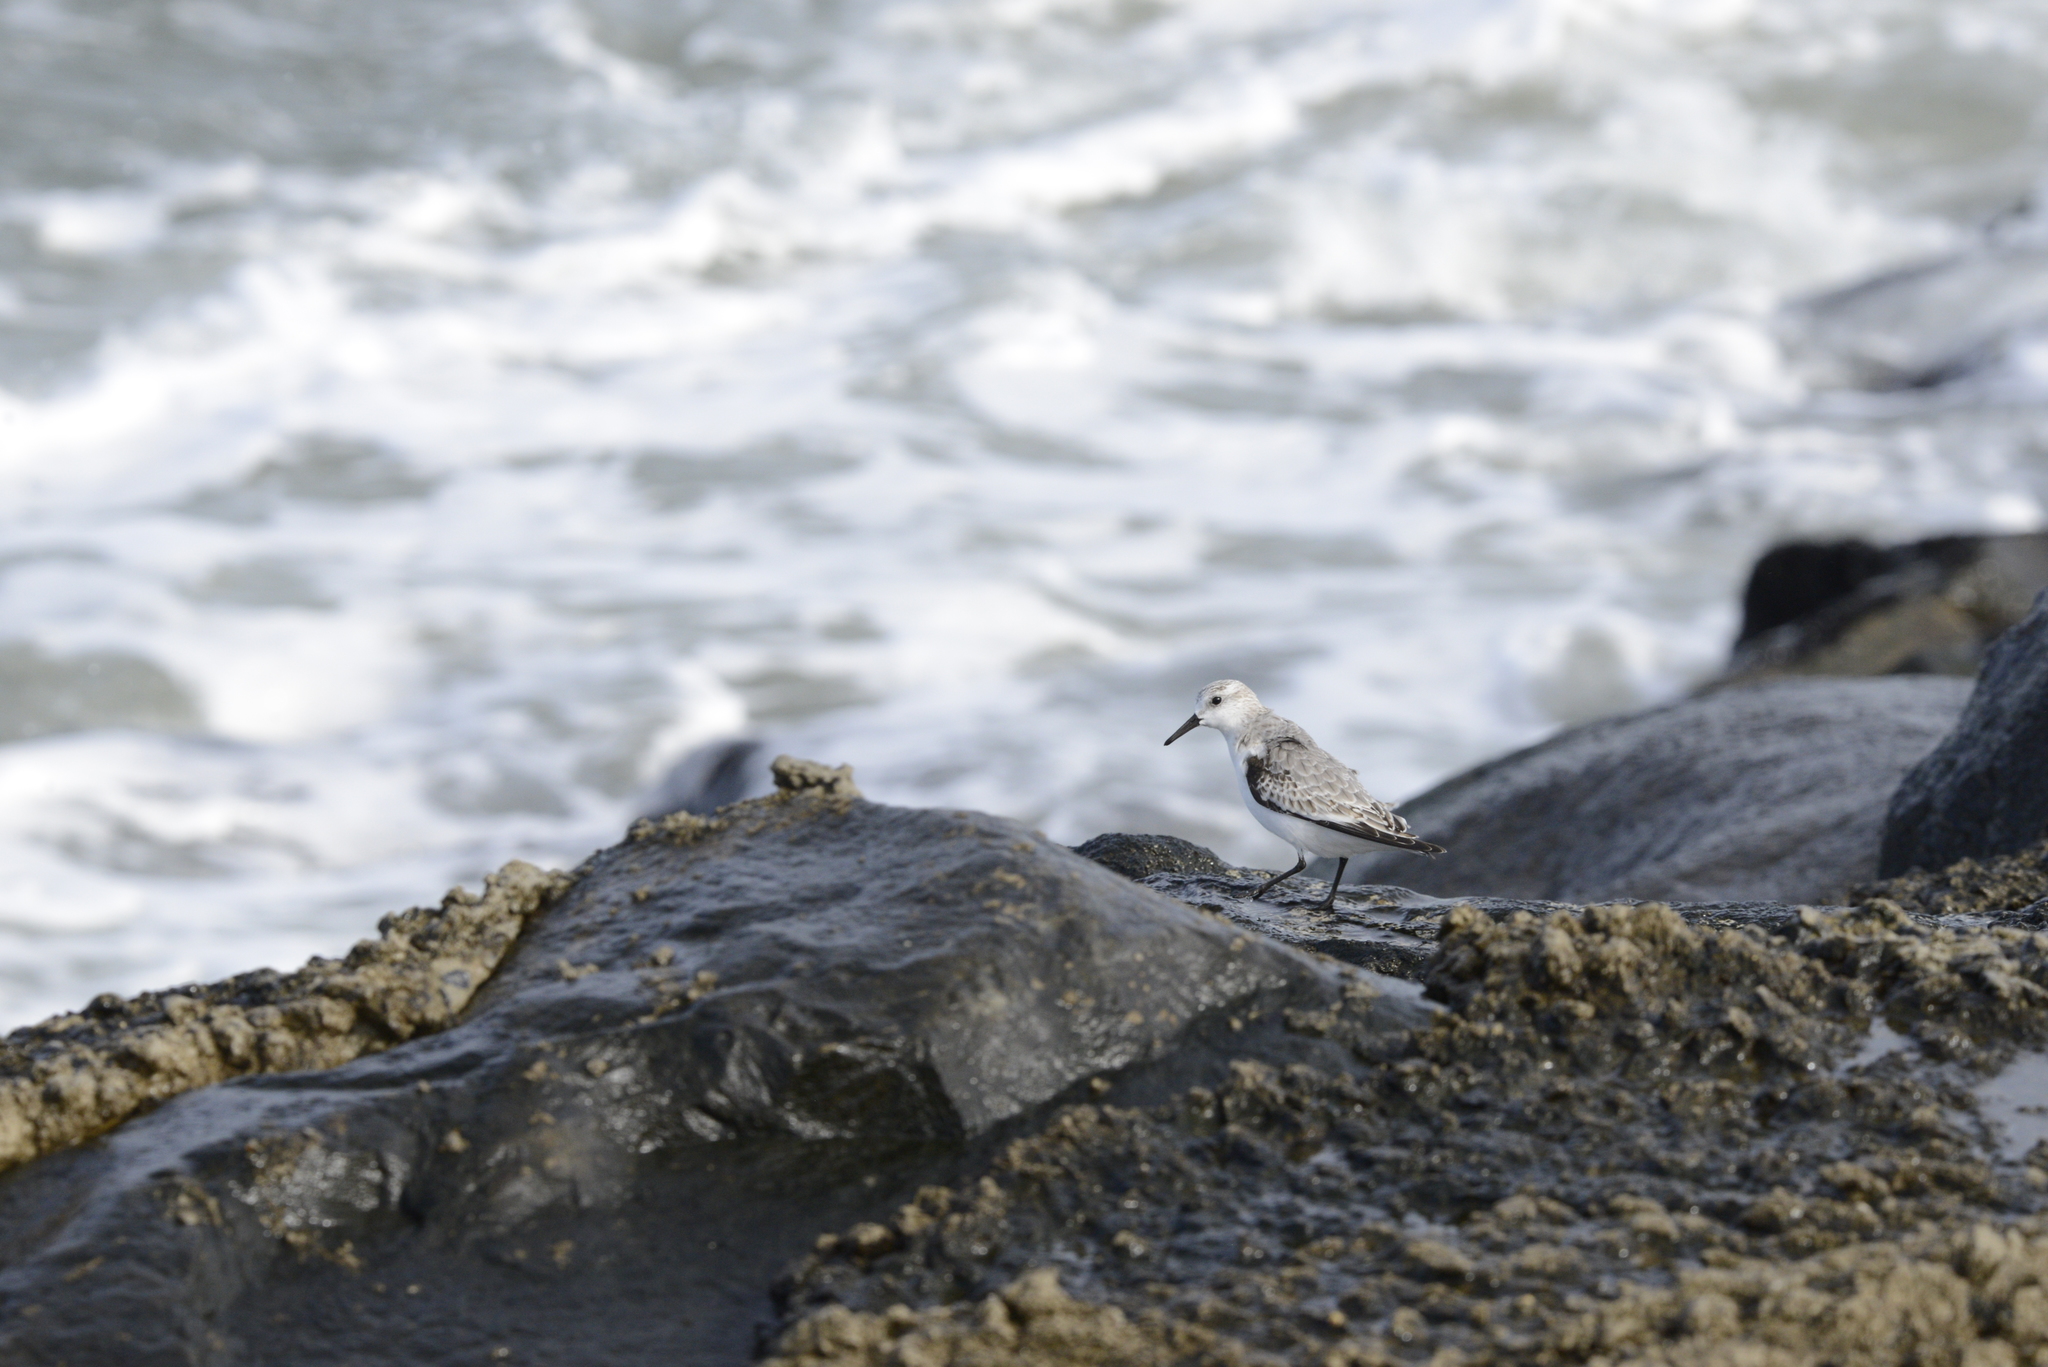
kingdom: Animalia
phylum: Chordata
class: Aves
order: Charadriiformes
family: Scolopacidae
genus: Calidris
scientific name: Calidris alba
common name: Sanderling
